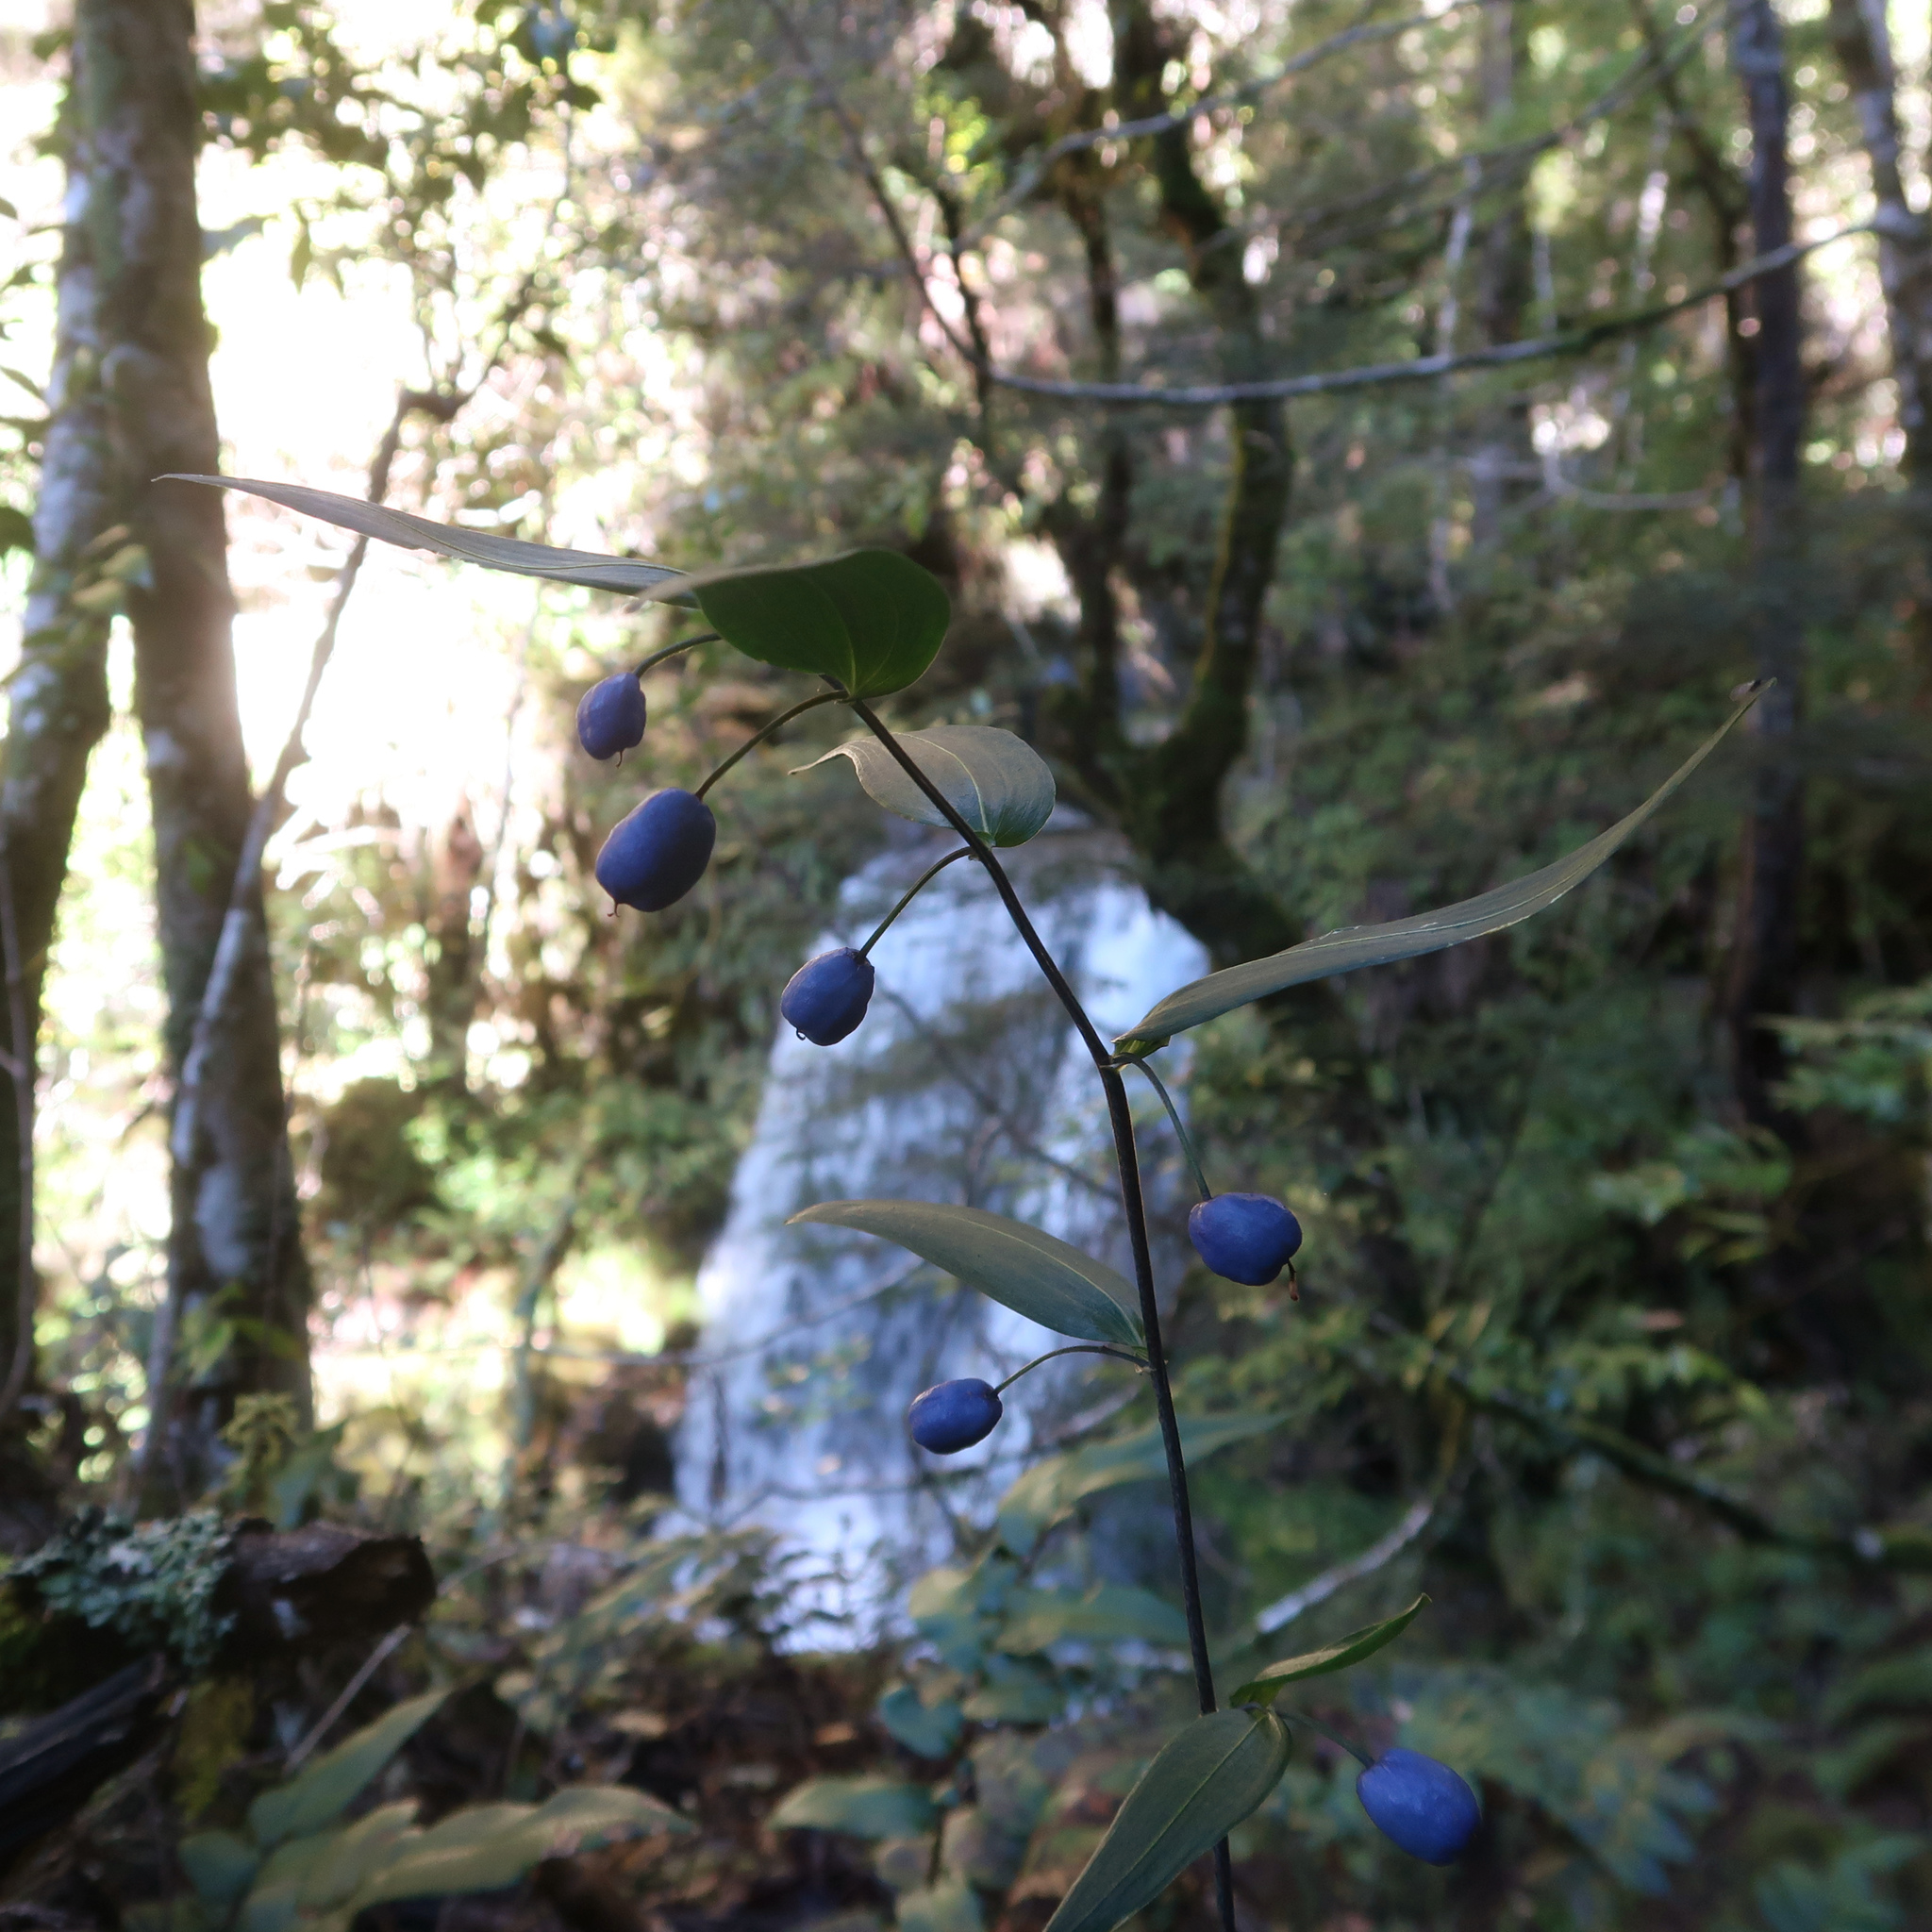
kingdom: Plantae
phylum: Tracheophyta
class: Liliopsida
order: Liliales
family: Alstroemeriaceae
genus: Drymophila
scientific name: Drymophila cyanocarpa
